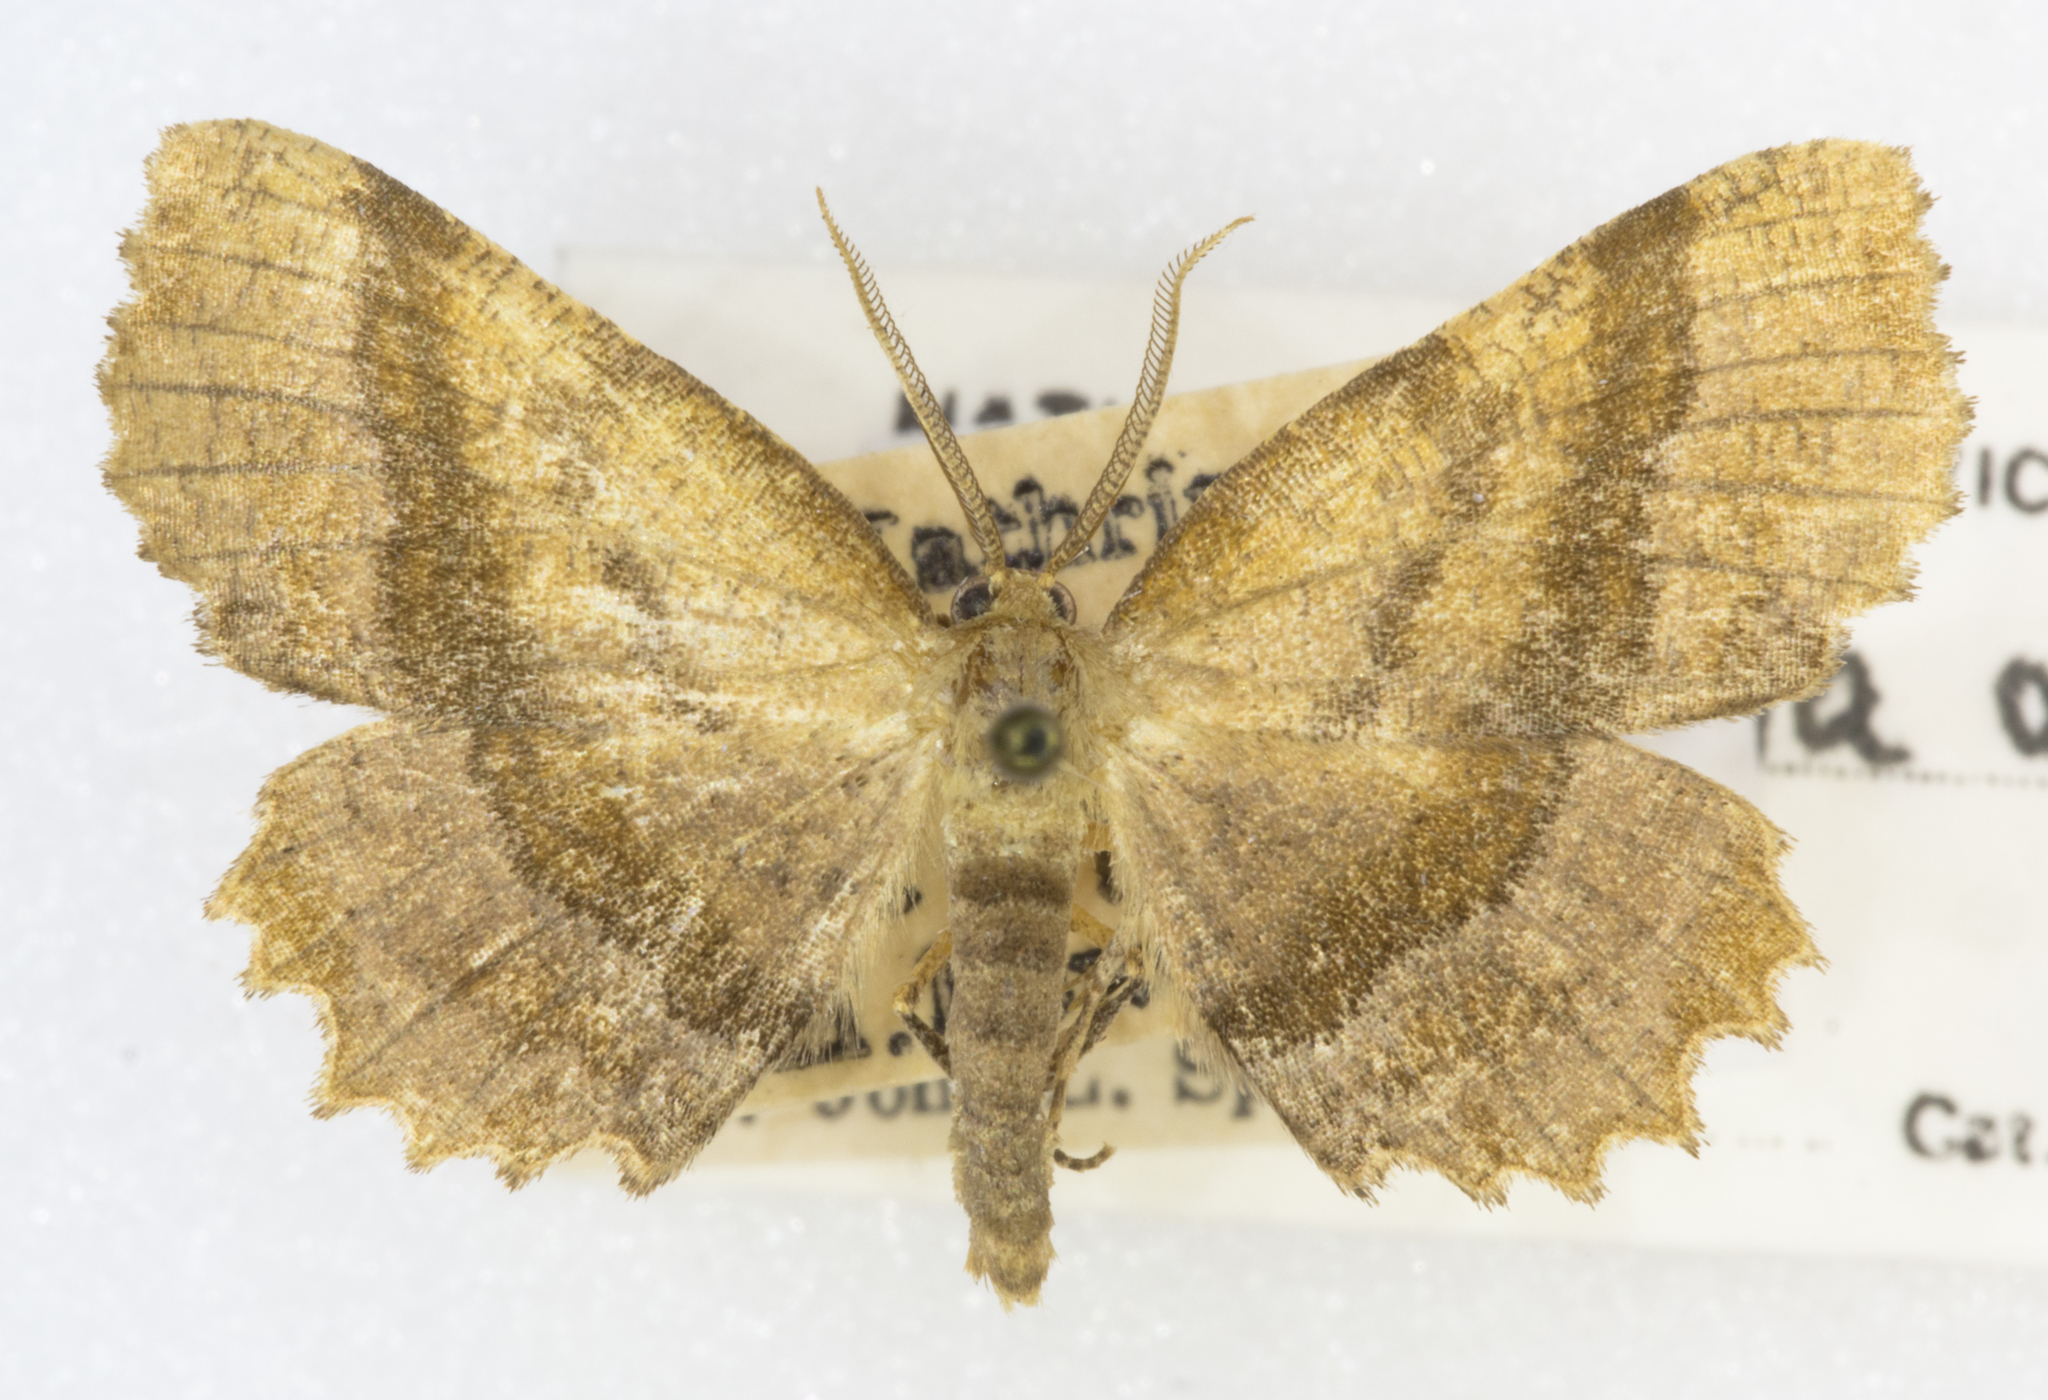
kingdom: Animalia
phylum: Arthropoda
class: Insecta
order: Lepidoptera
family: Geometridae
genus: Cepphis
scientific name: Cepphis armataria
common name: Scallop moth
